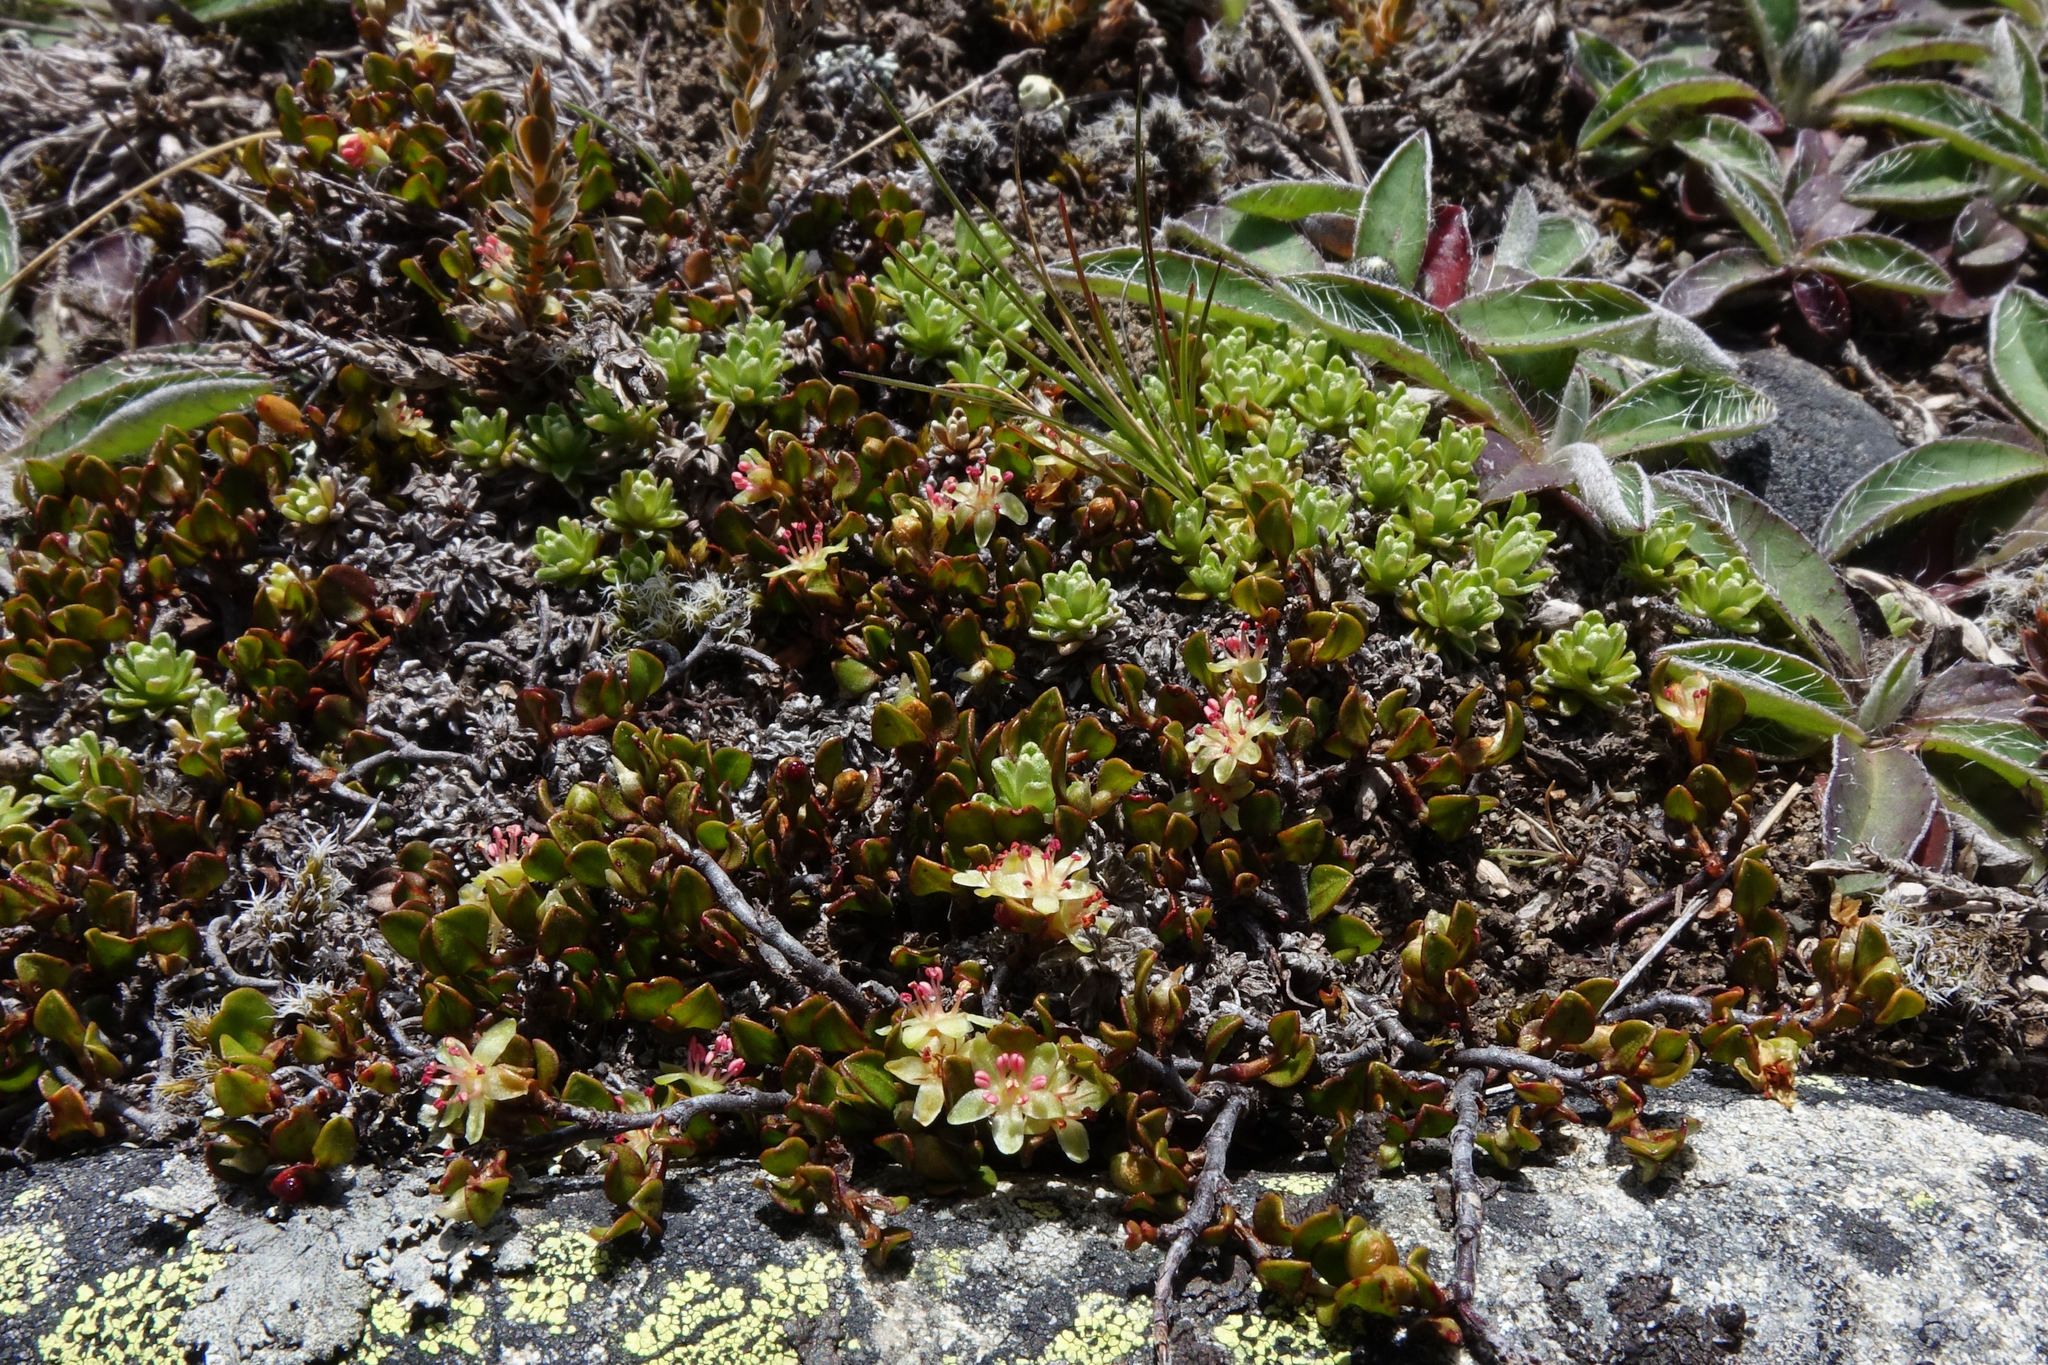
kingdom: Plantae
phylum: Tracheophyta
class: Magnoliopsida
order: Caryophyllales
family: Polygonaceae
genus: Muehlenbeckia
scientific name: Muehlenbeckia axillaris
